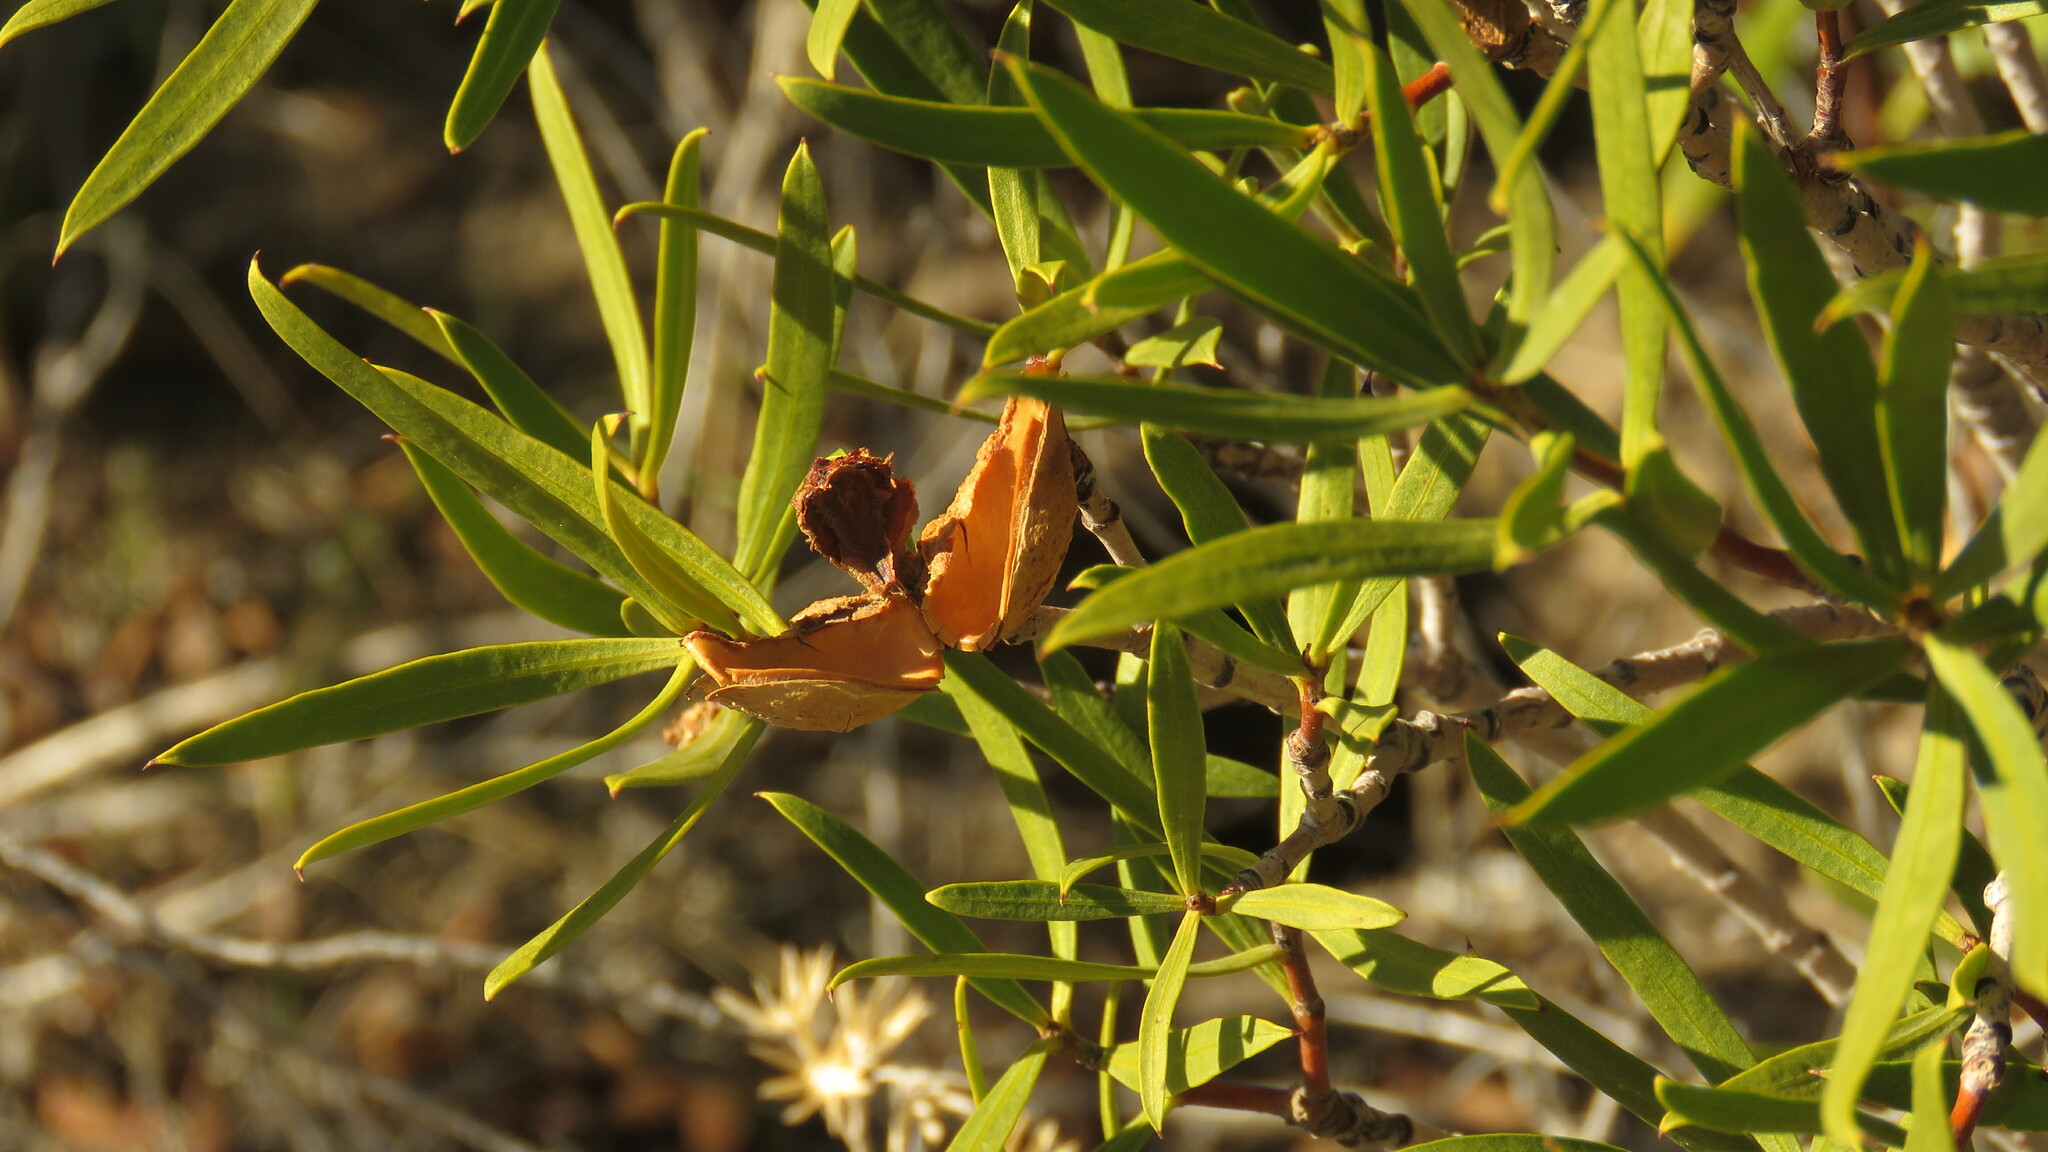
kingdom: Plantae
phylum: Tracheophyta
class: Magnoliopsida
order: Malpighiales
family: Euphorbiaceae
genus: Colliguaja
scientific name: Colliguaja integerrima
